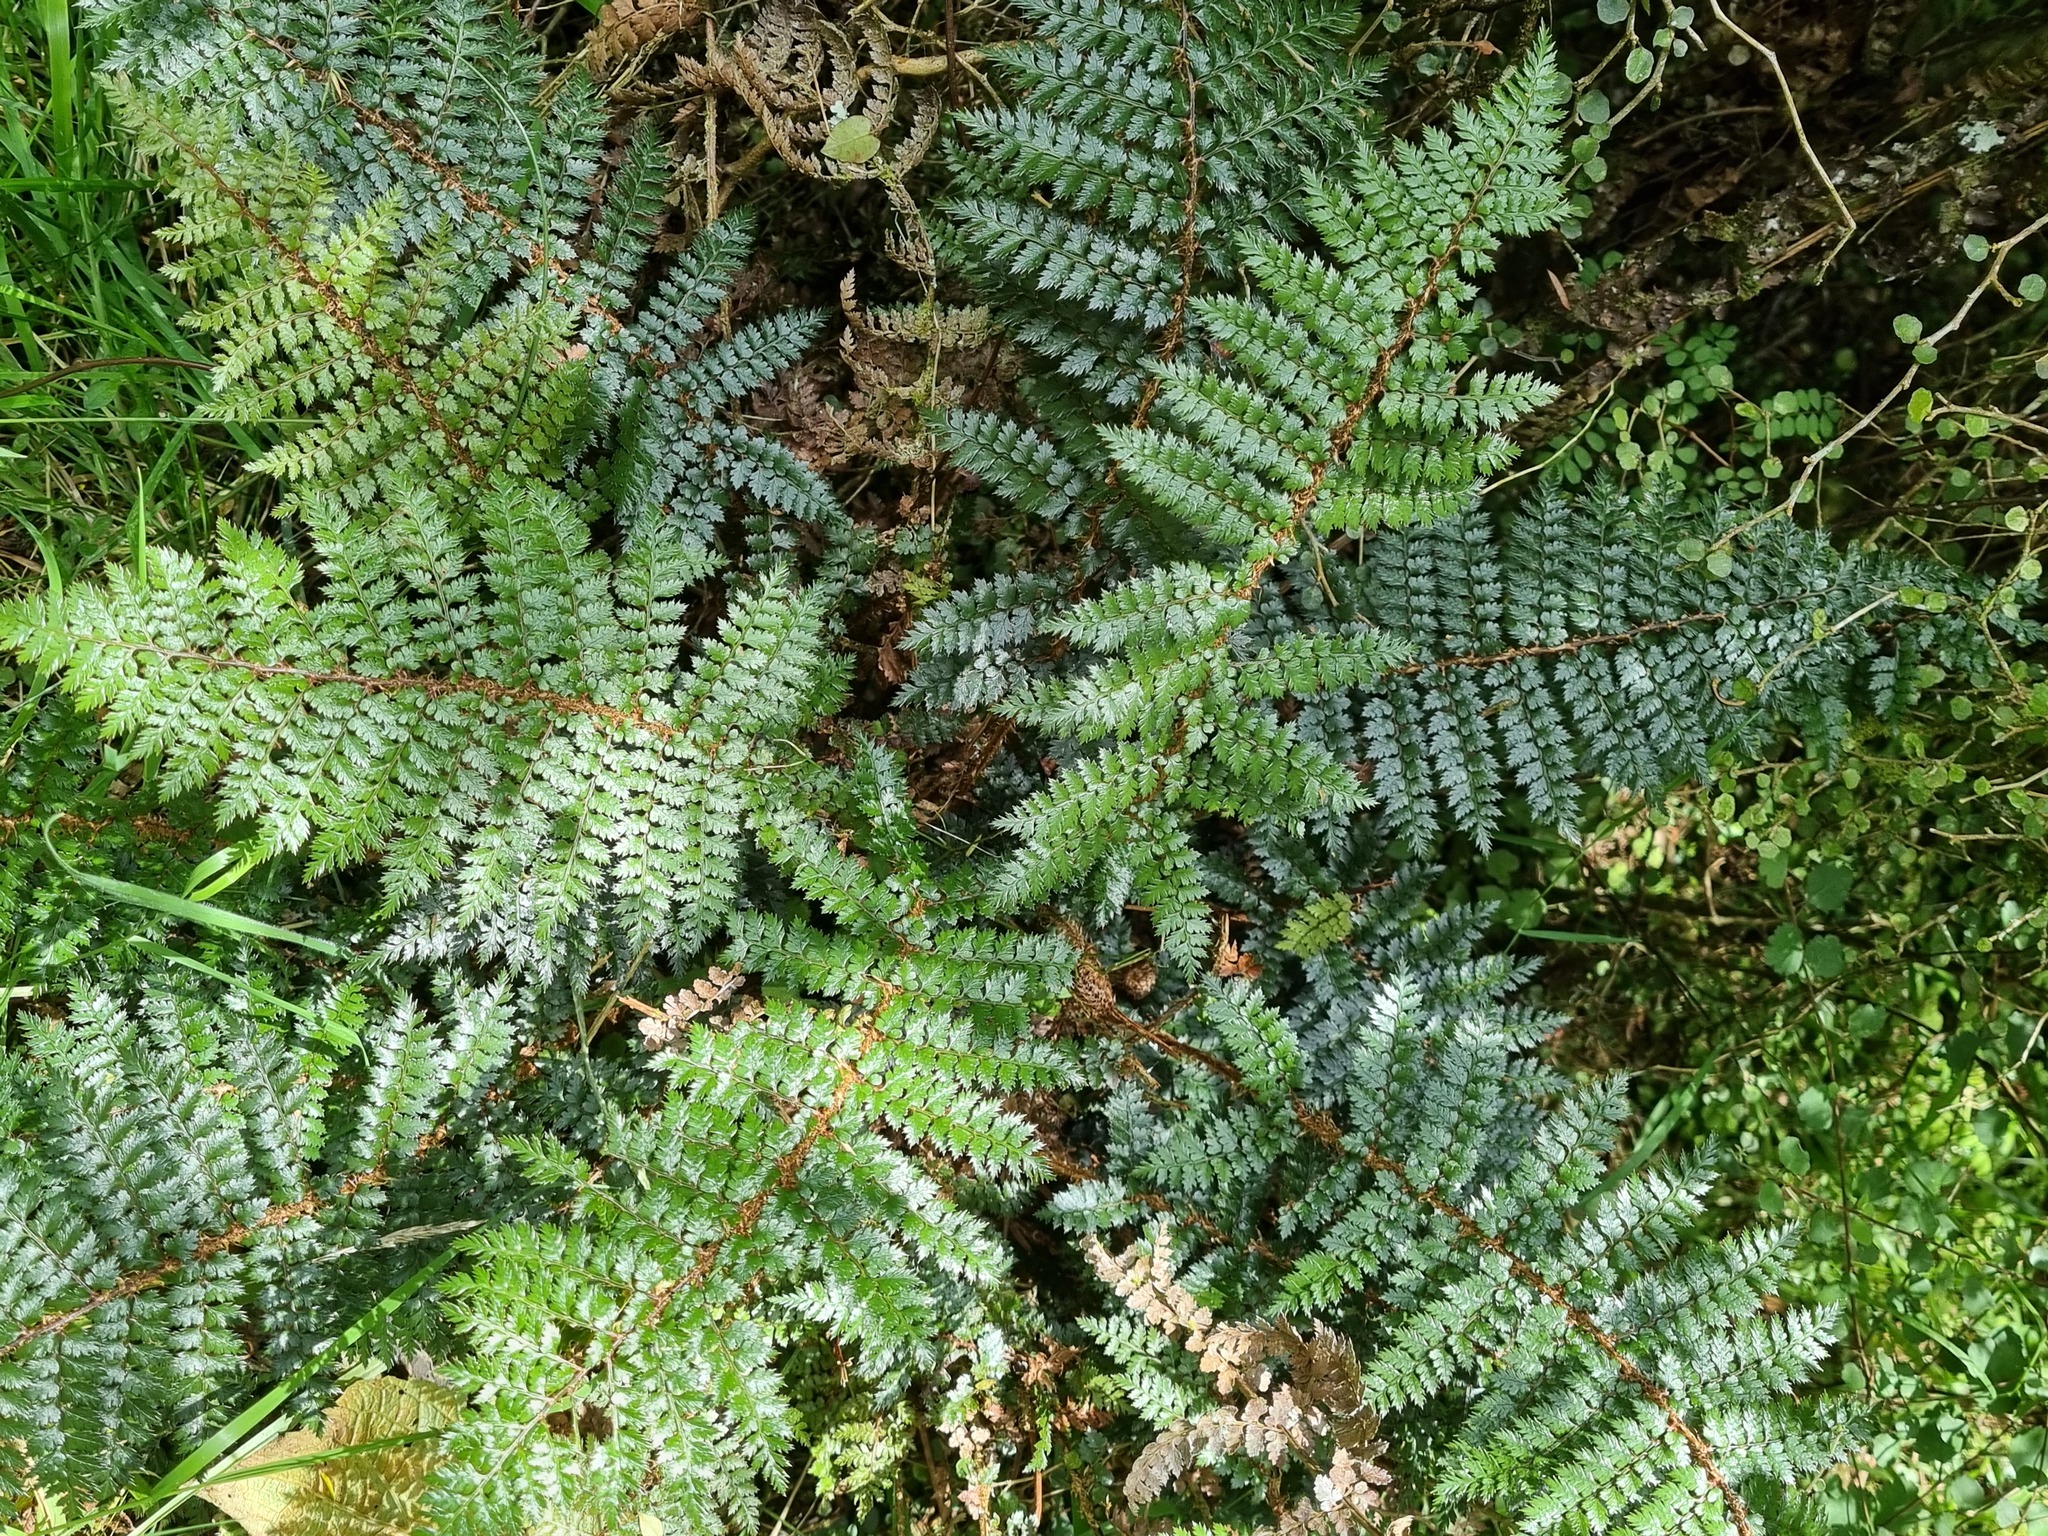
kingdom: Plantae
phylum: Tracheophyta
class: Polypodiopsida
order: Polypodiales
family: Dryopteridaceae
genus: Polystichum
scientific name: Polystichum vestitum
